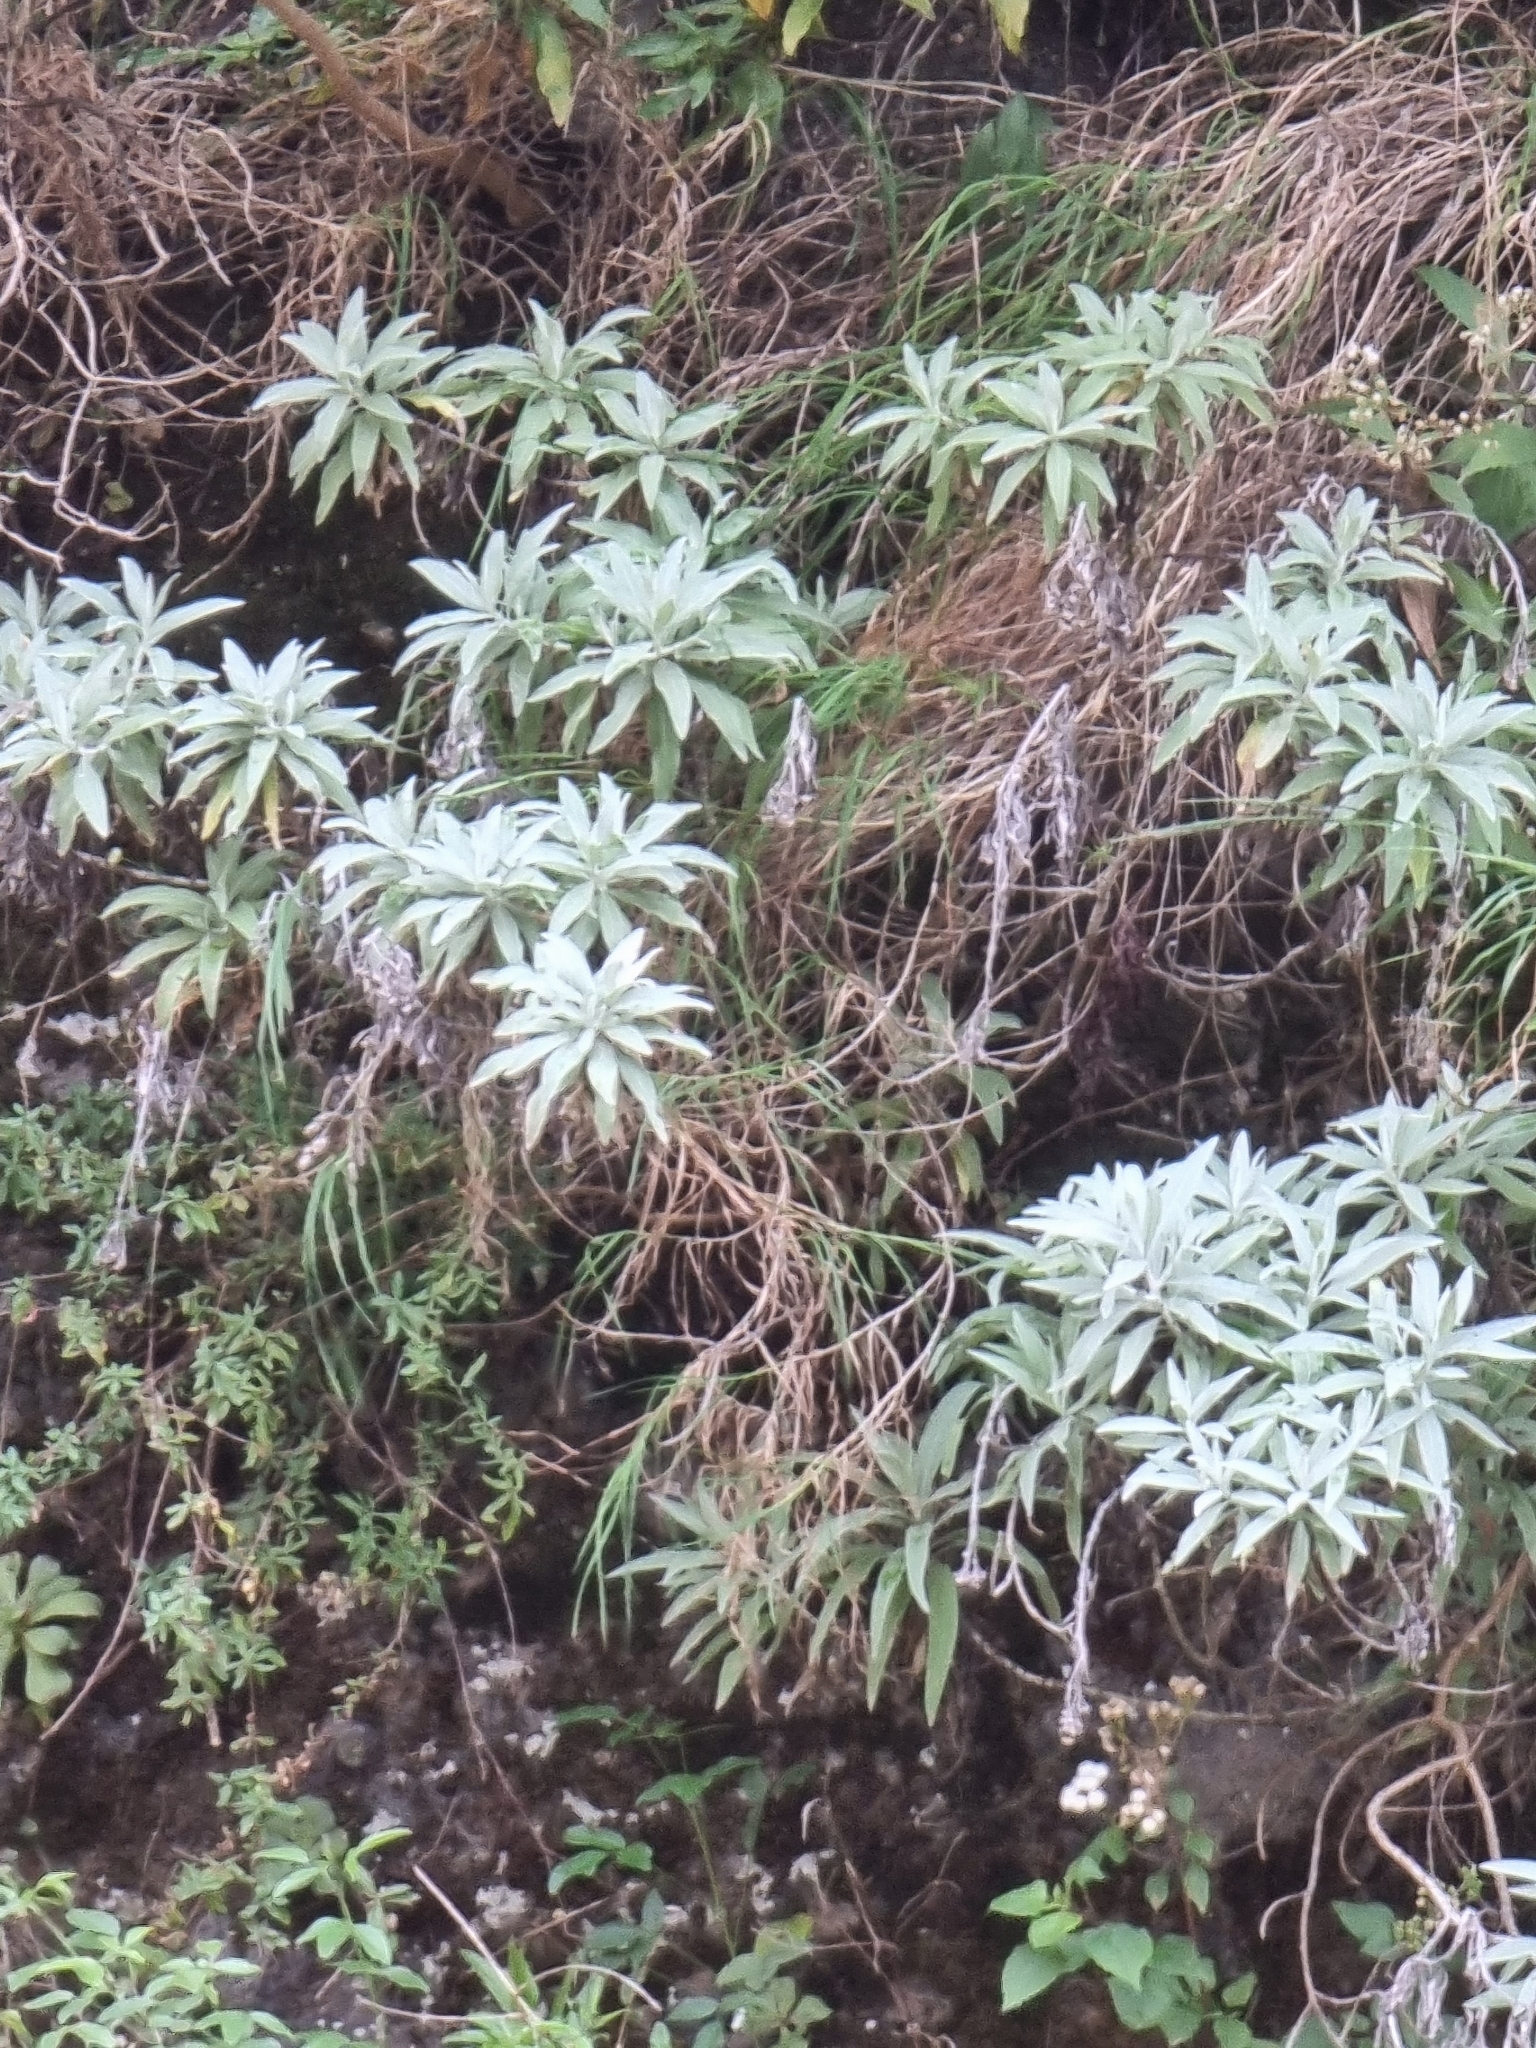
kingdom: Plantae
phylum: Tracheophyta
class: Magnoliopsida
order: Asterales
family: Asteraceae
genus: Helichrysum
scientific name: Helichrysum melaleucum
